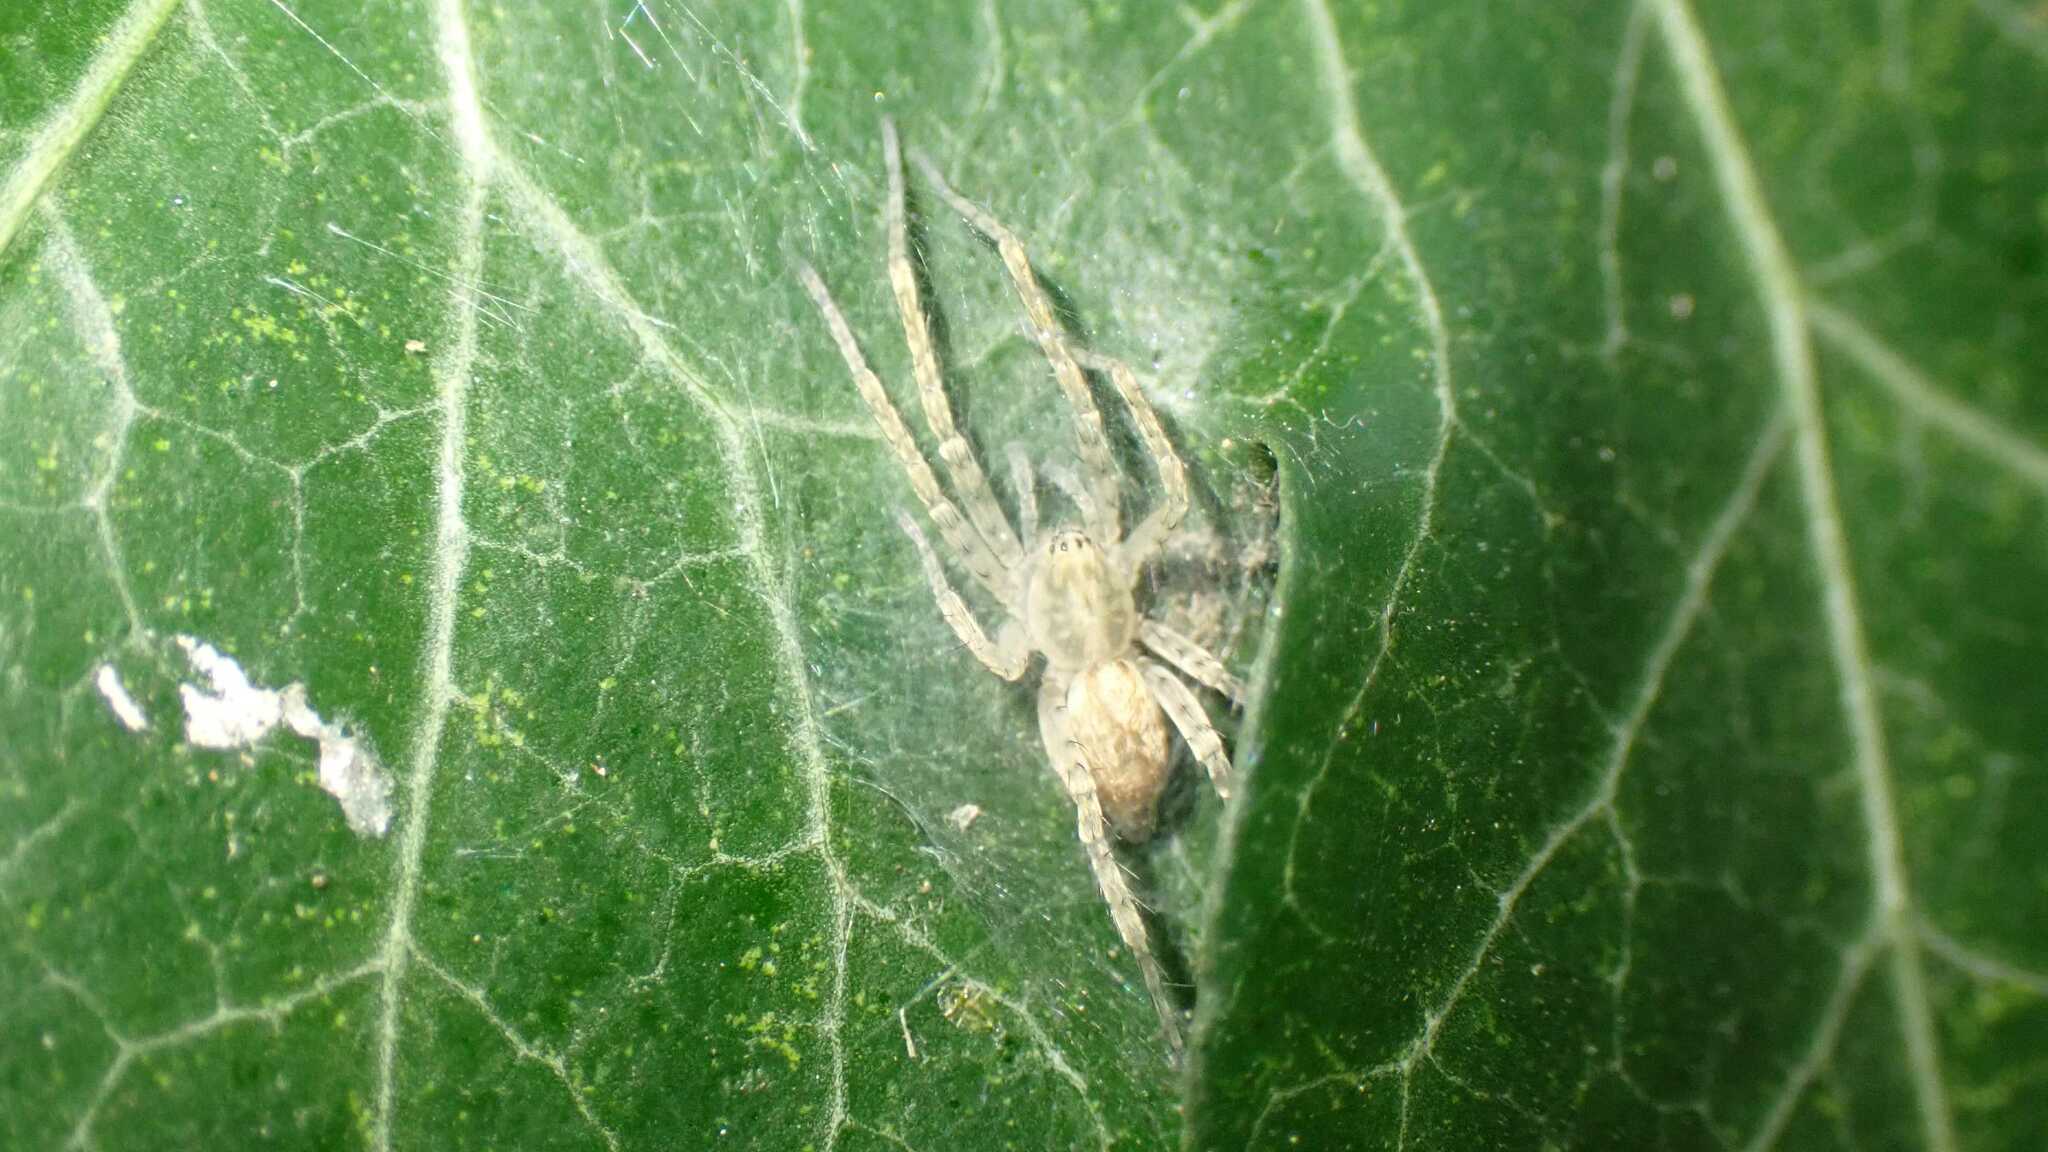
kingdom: Animalia
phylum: Arthropoda
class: Arachnida
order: Araneae
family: Anyphaenidae
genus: Anyphaena
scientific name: Anyphaena accentuata
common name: Buzzing spider
